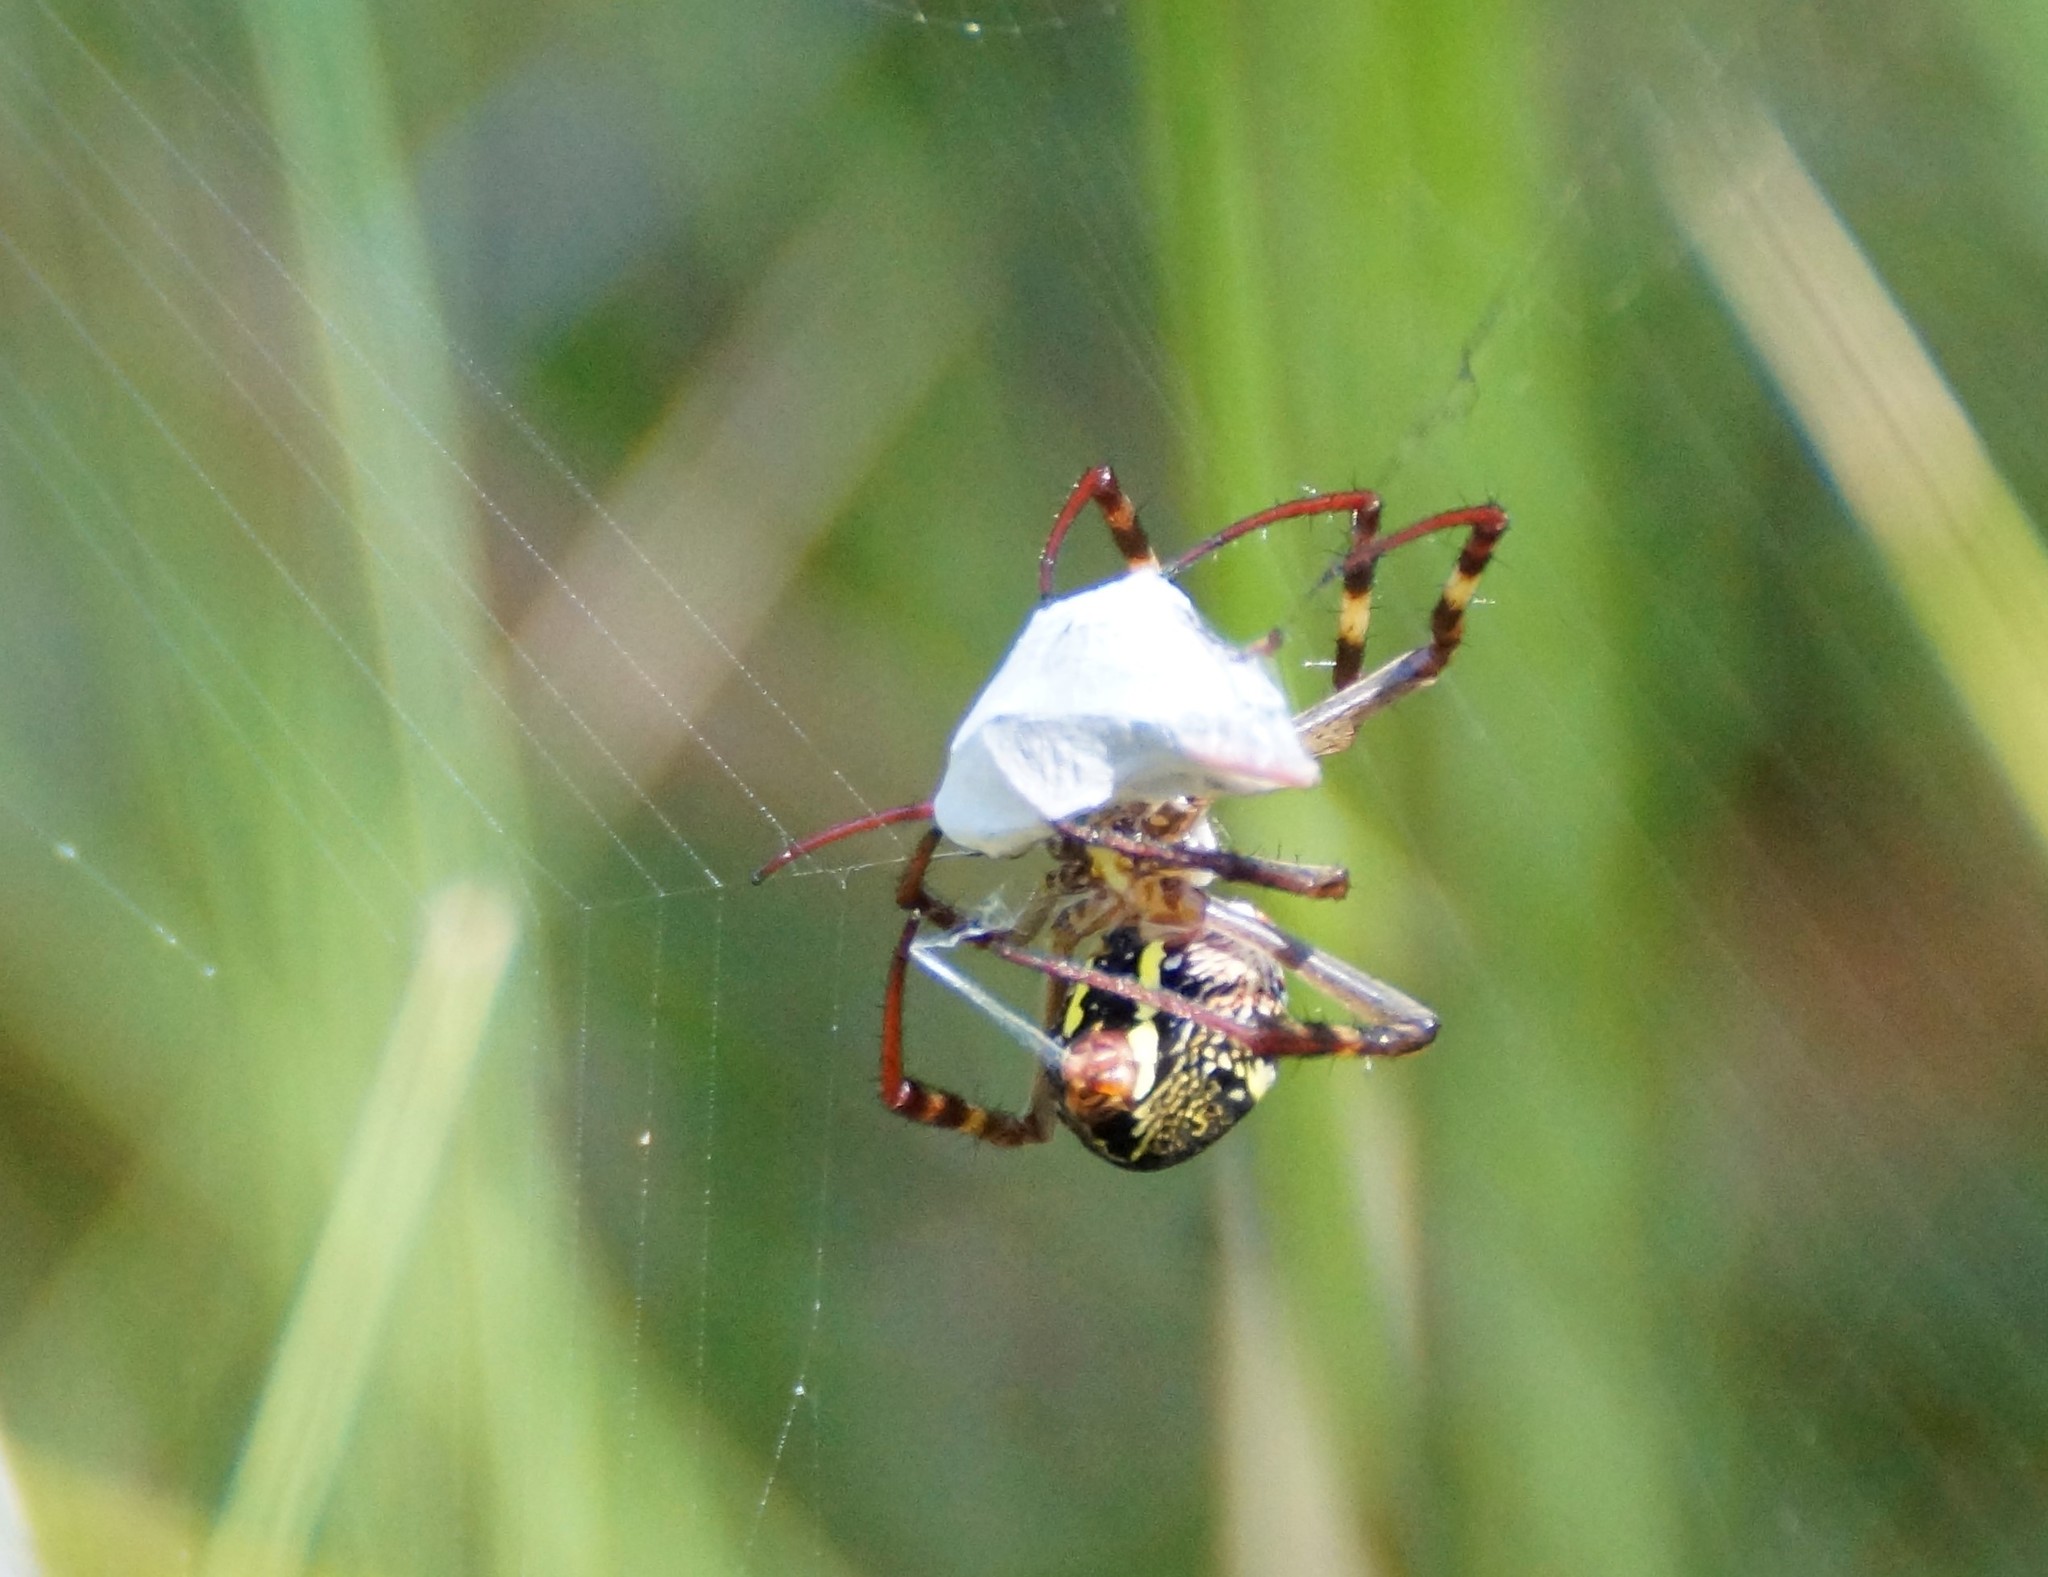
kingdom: Animalia
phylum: Arthropoda
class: Arachnida
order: Araneae
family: Araneidae
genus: Argiope
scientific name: Argiope keyserlingi
